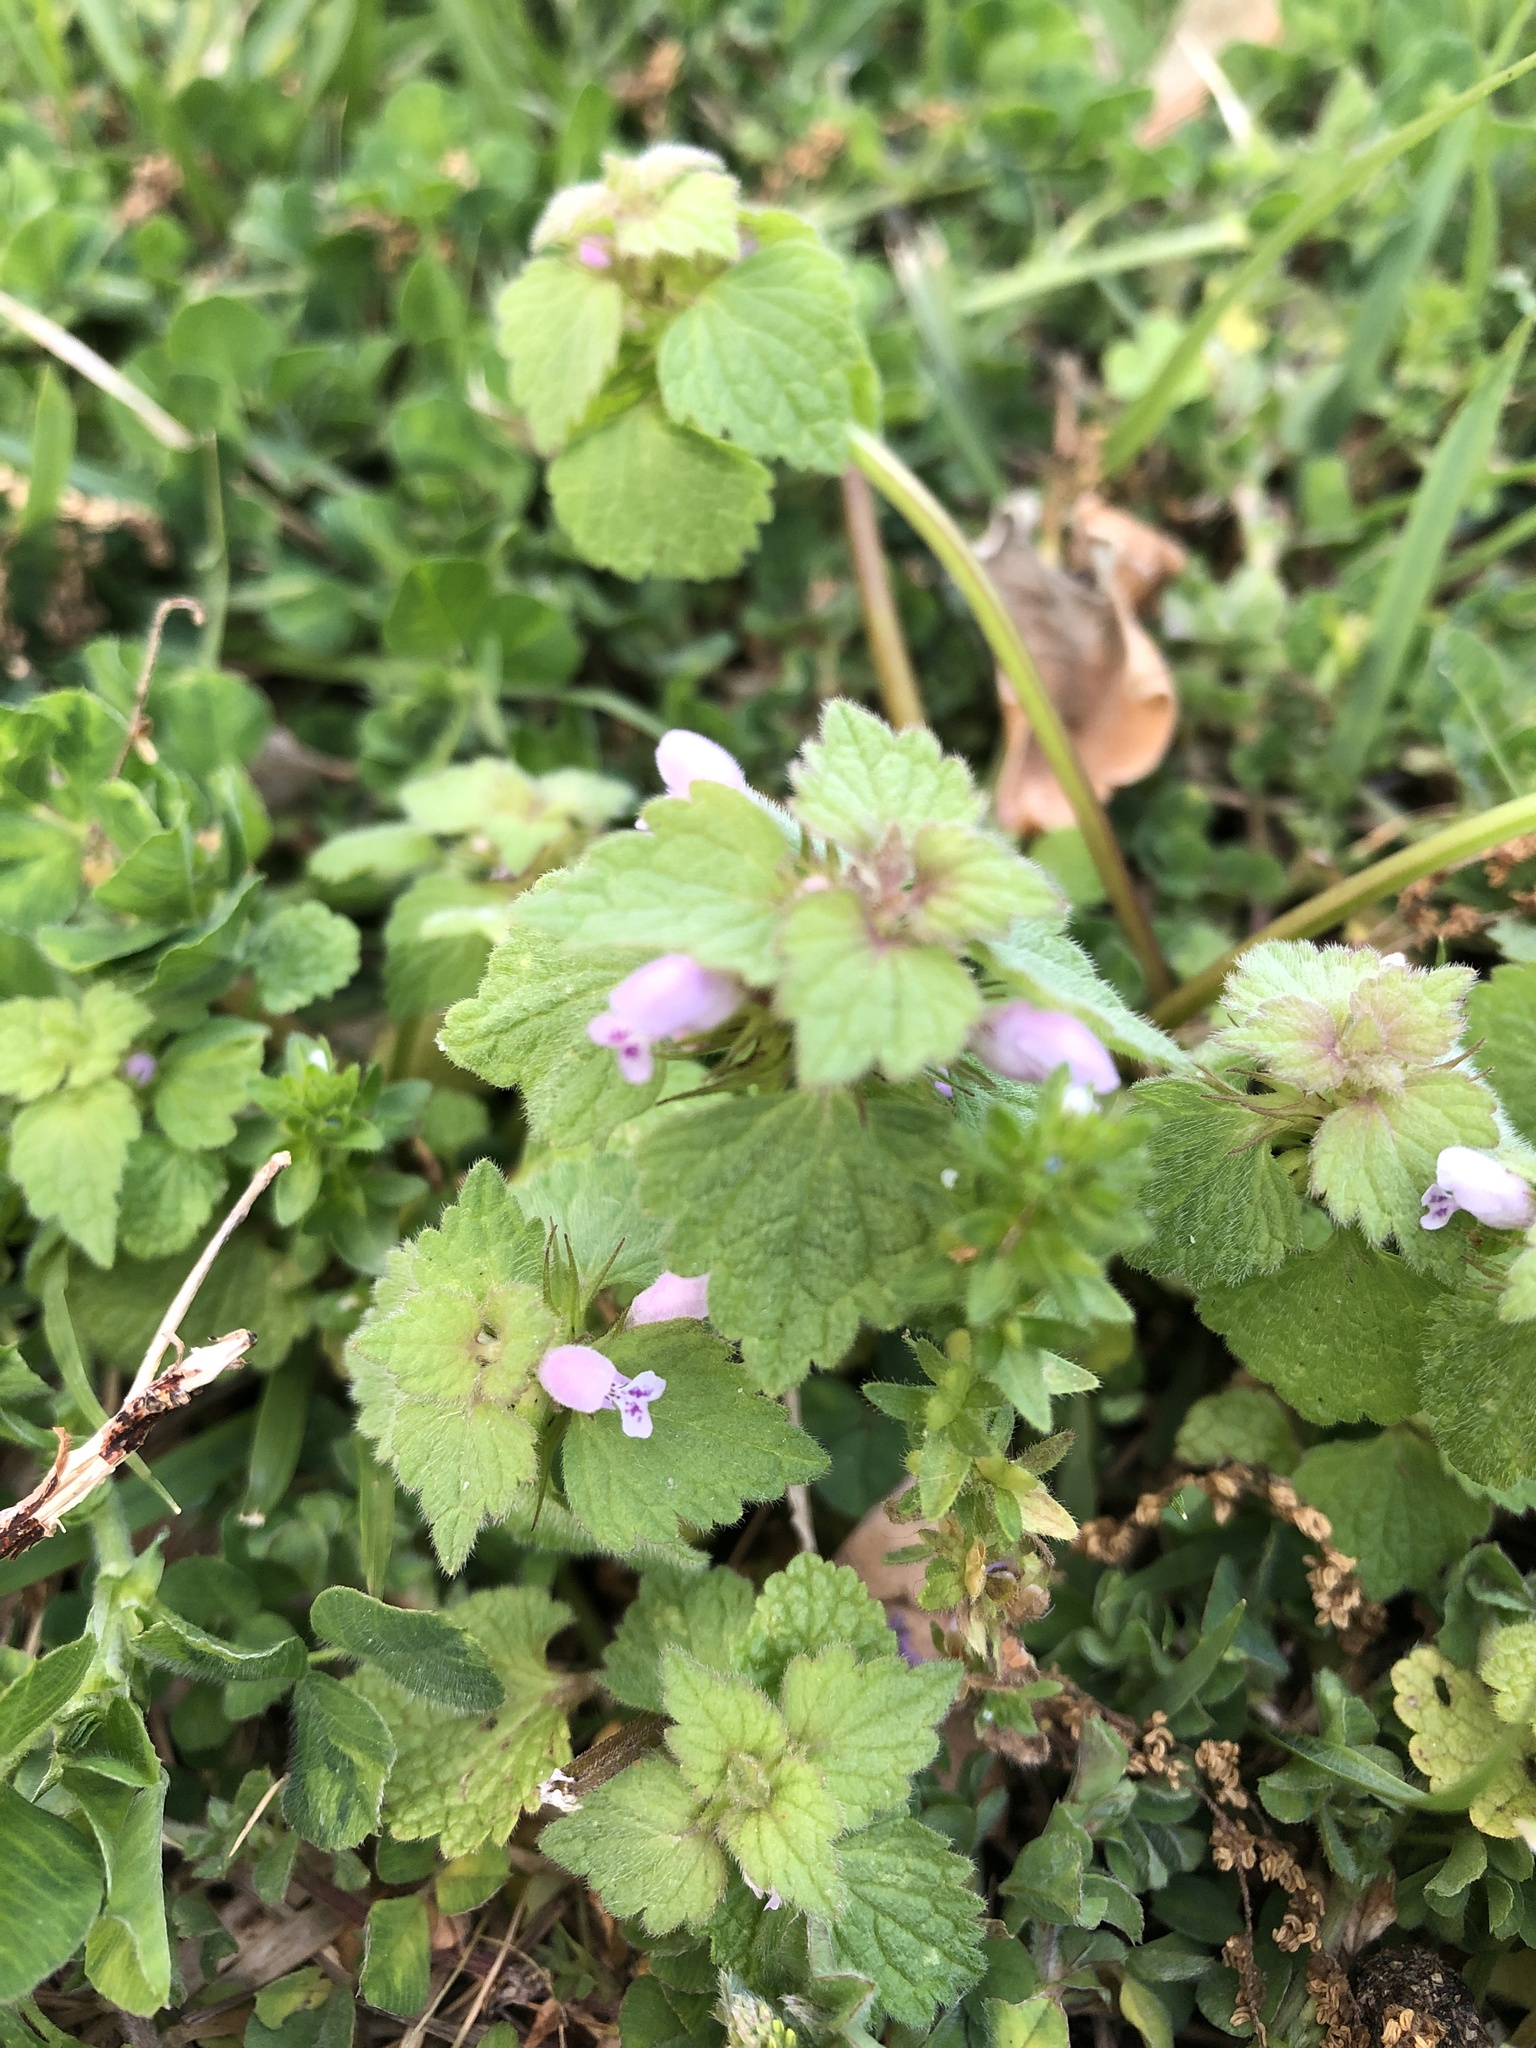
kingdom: Plantae
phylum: Tracheophyta
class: Magnoliopsida
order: Lamiales
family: Lamiaceae
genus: Lamium
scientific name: Lamium purpureum
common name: Red dead-nettle
